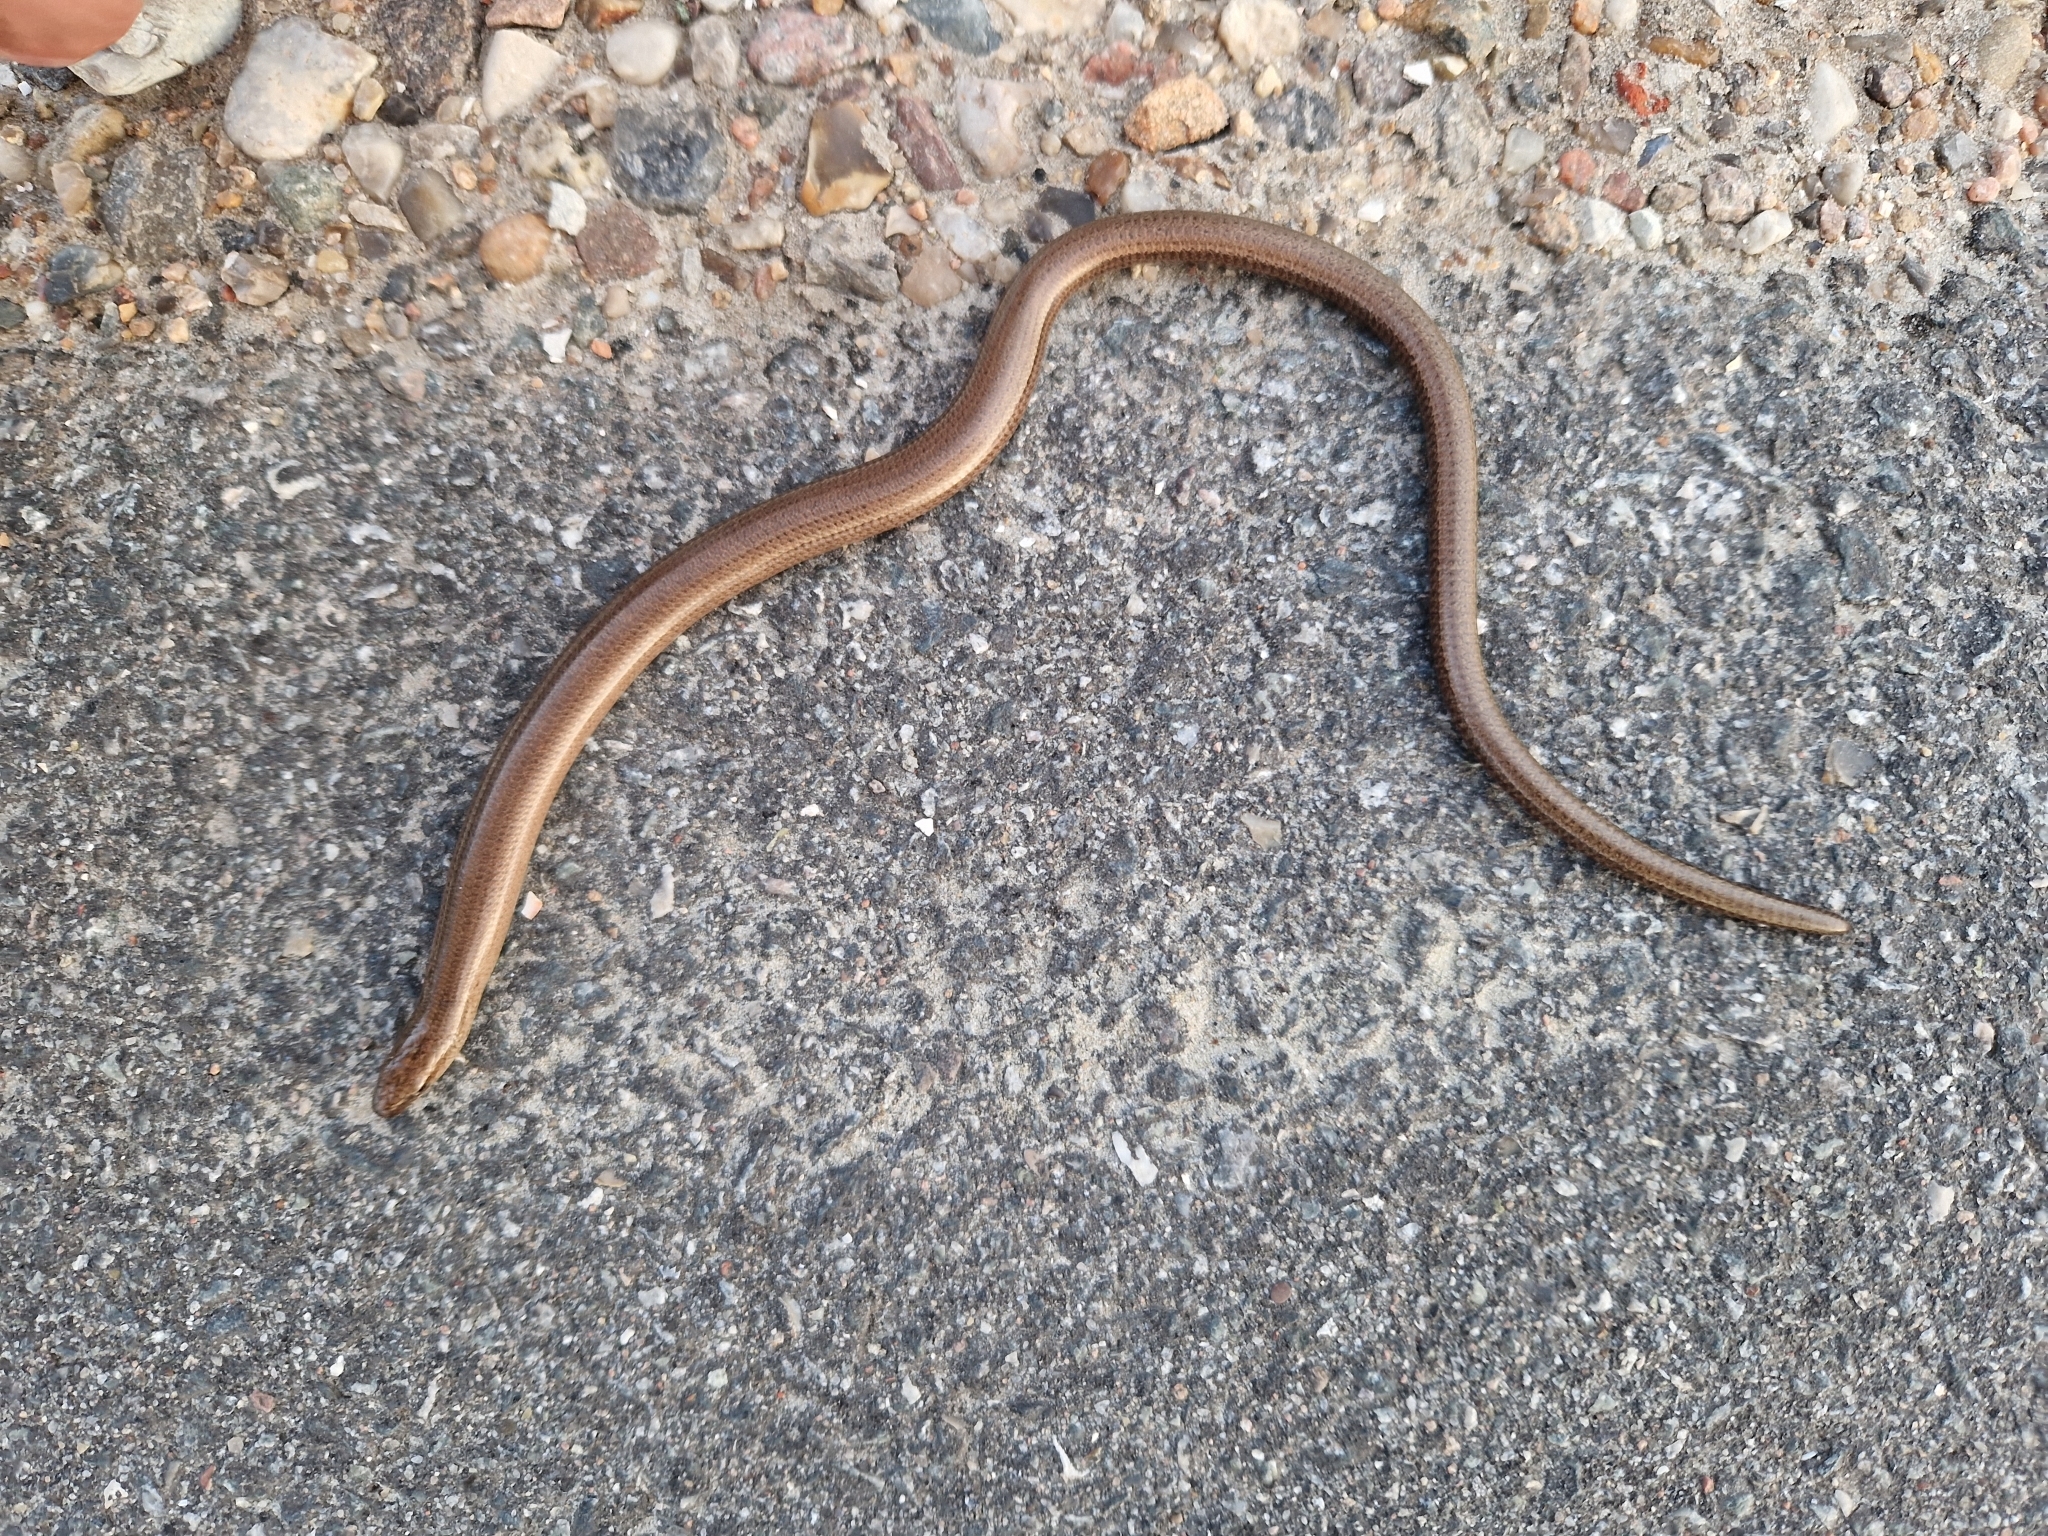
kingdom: Animalia
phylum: Chordata
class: Squamata
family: Anguidae
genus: Anguis
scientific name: Anguis fragilis
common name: Slow worm
